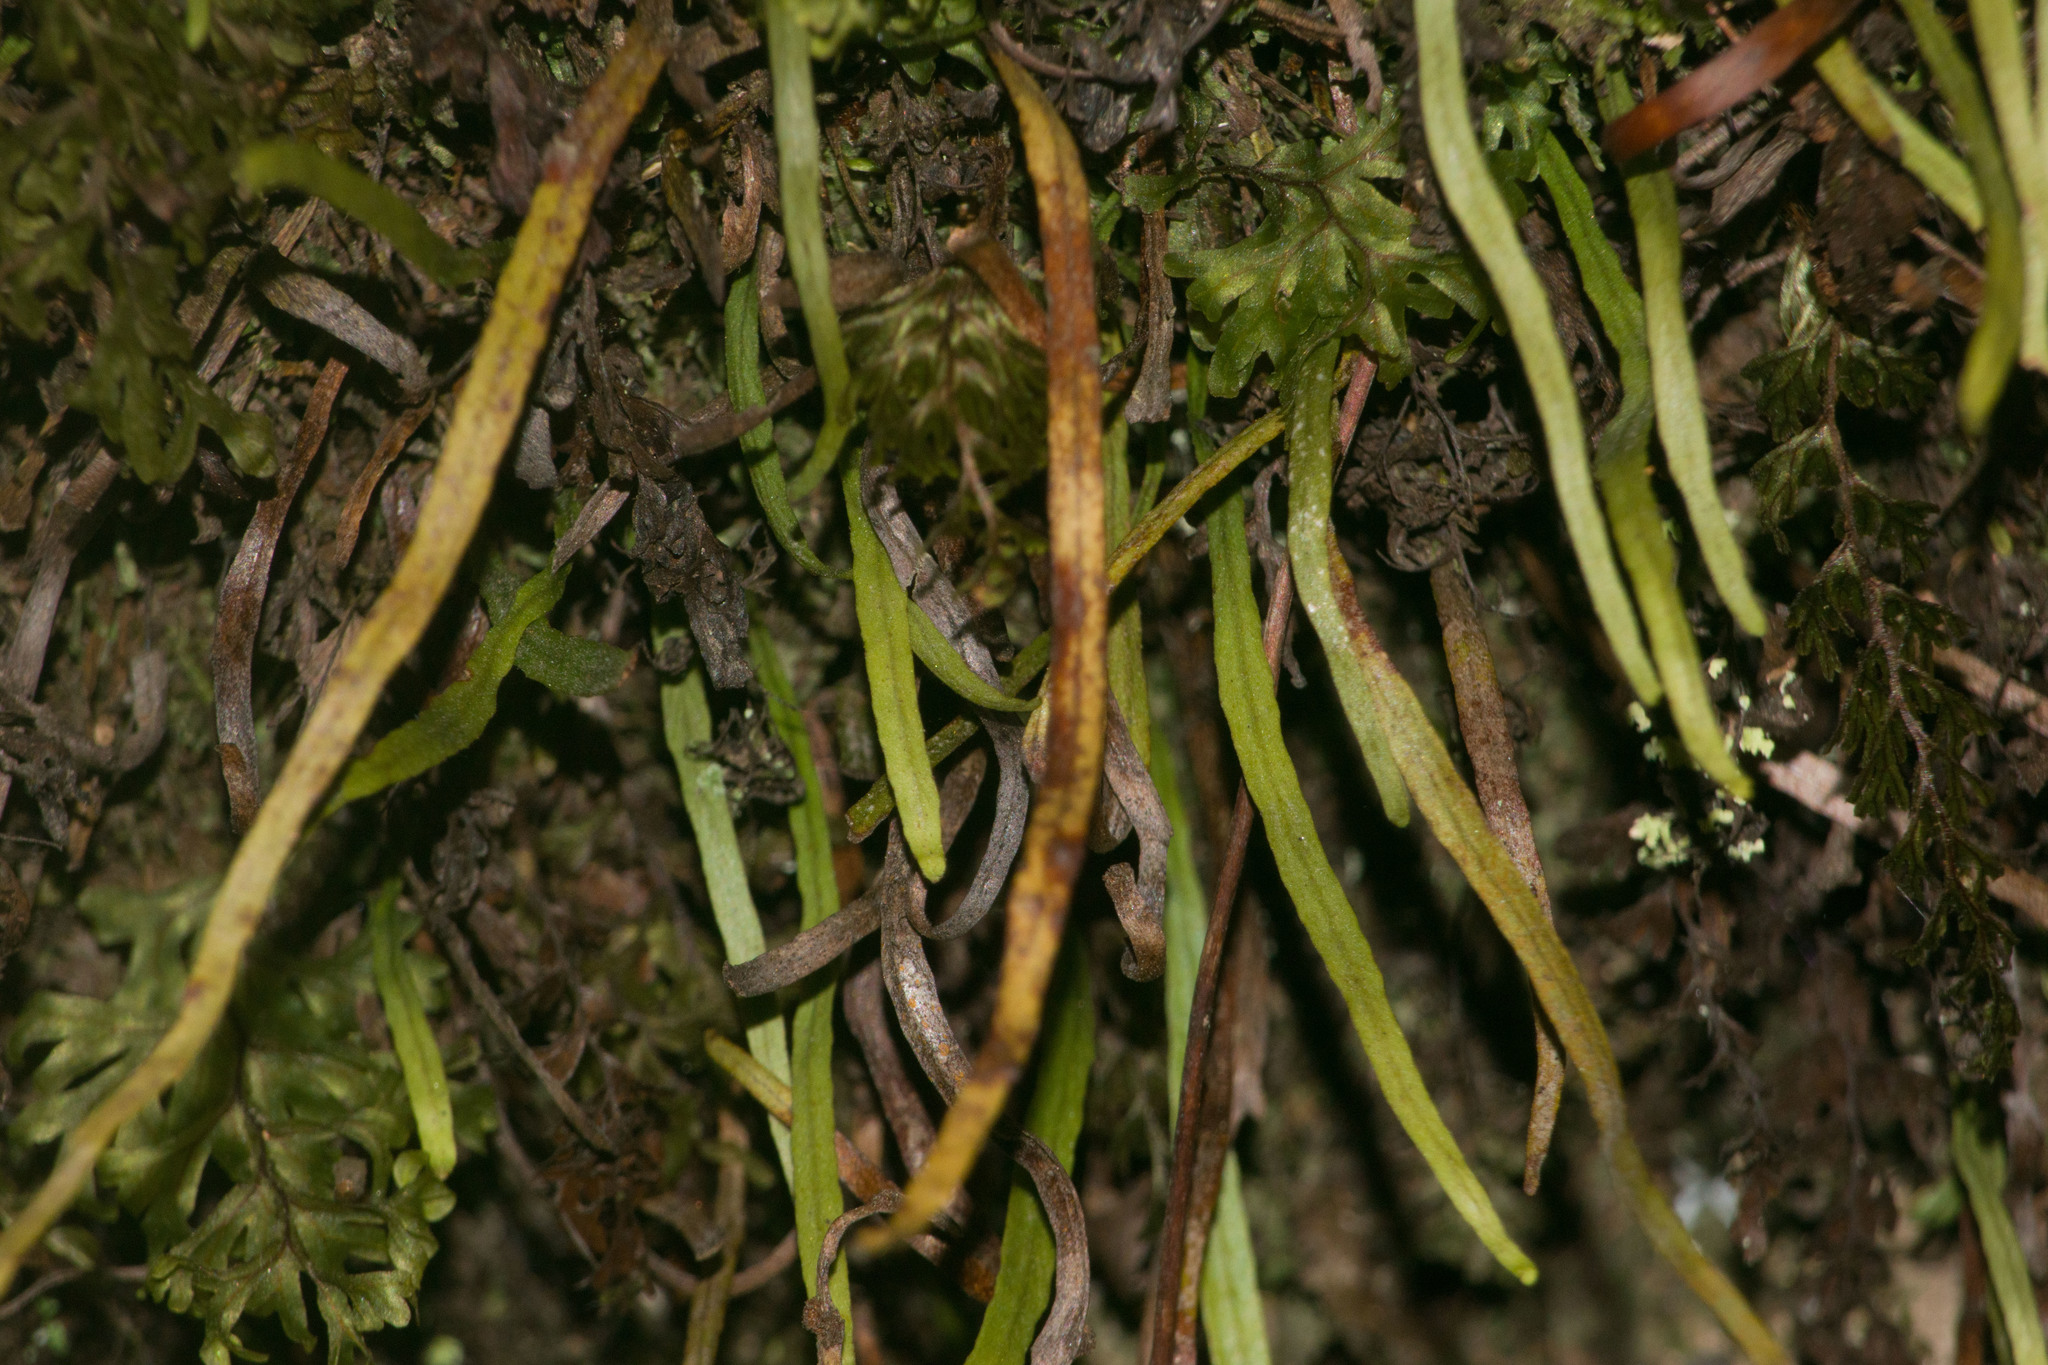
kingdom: Plantae
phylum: Tracheophyta
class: Polypodiopsida
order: Polypodiales
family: Polypodiaceae
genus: Adenophorus
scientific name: Adenophorus tenellus
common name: Kolokolo
